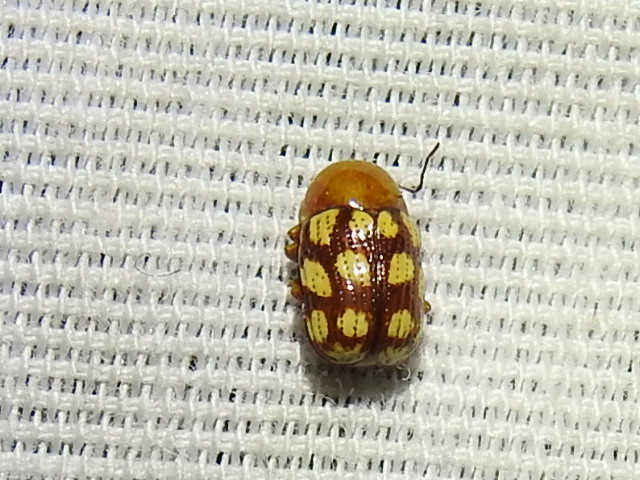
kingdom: Animalia
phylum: Arthropoda
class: Insecta
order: Coleoptera
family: Chrysomelidae
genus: Cryptocephalus
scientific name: Cryptocephalus guttulatus
